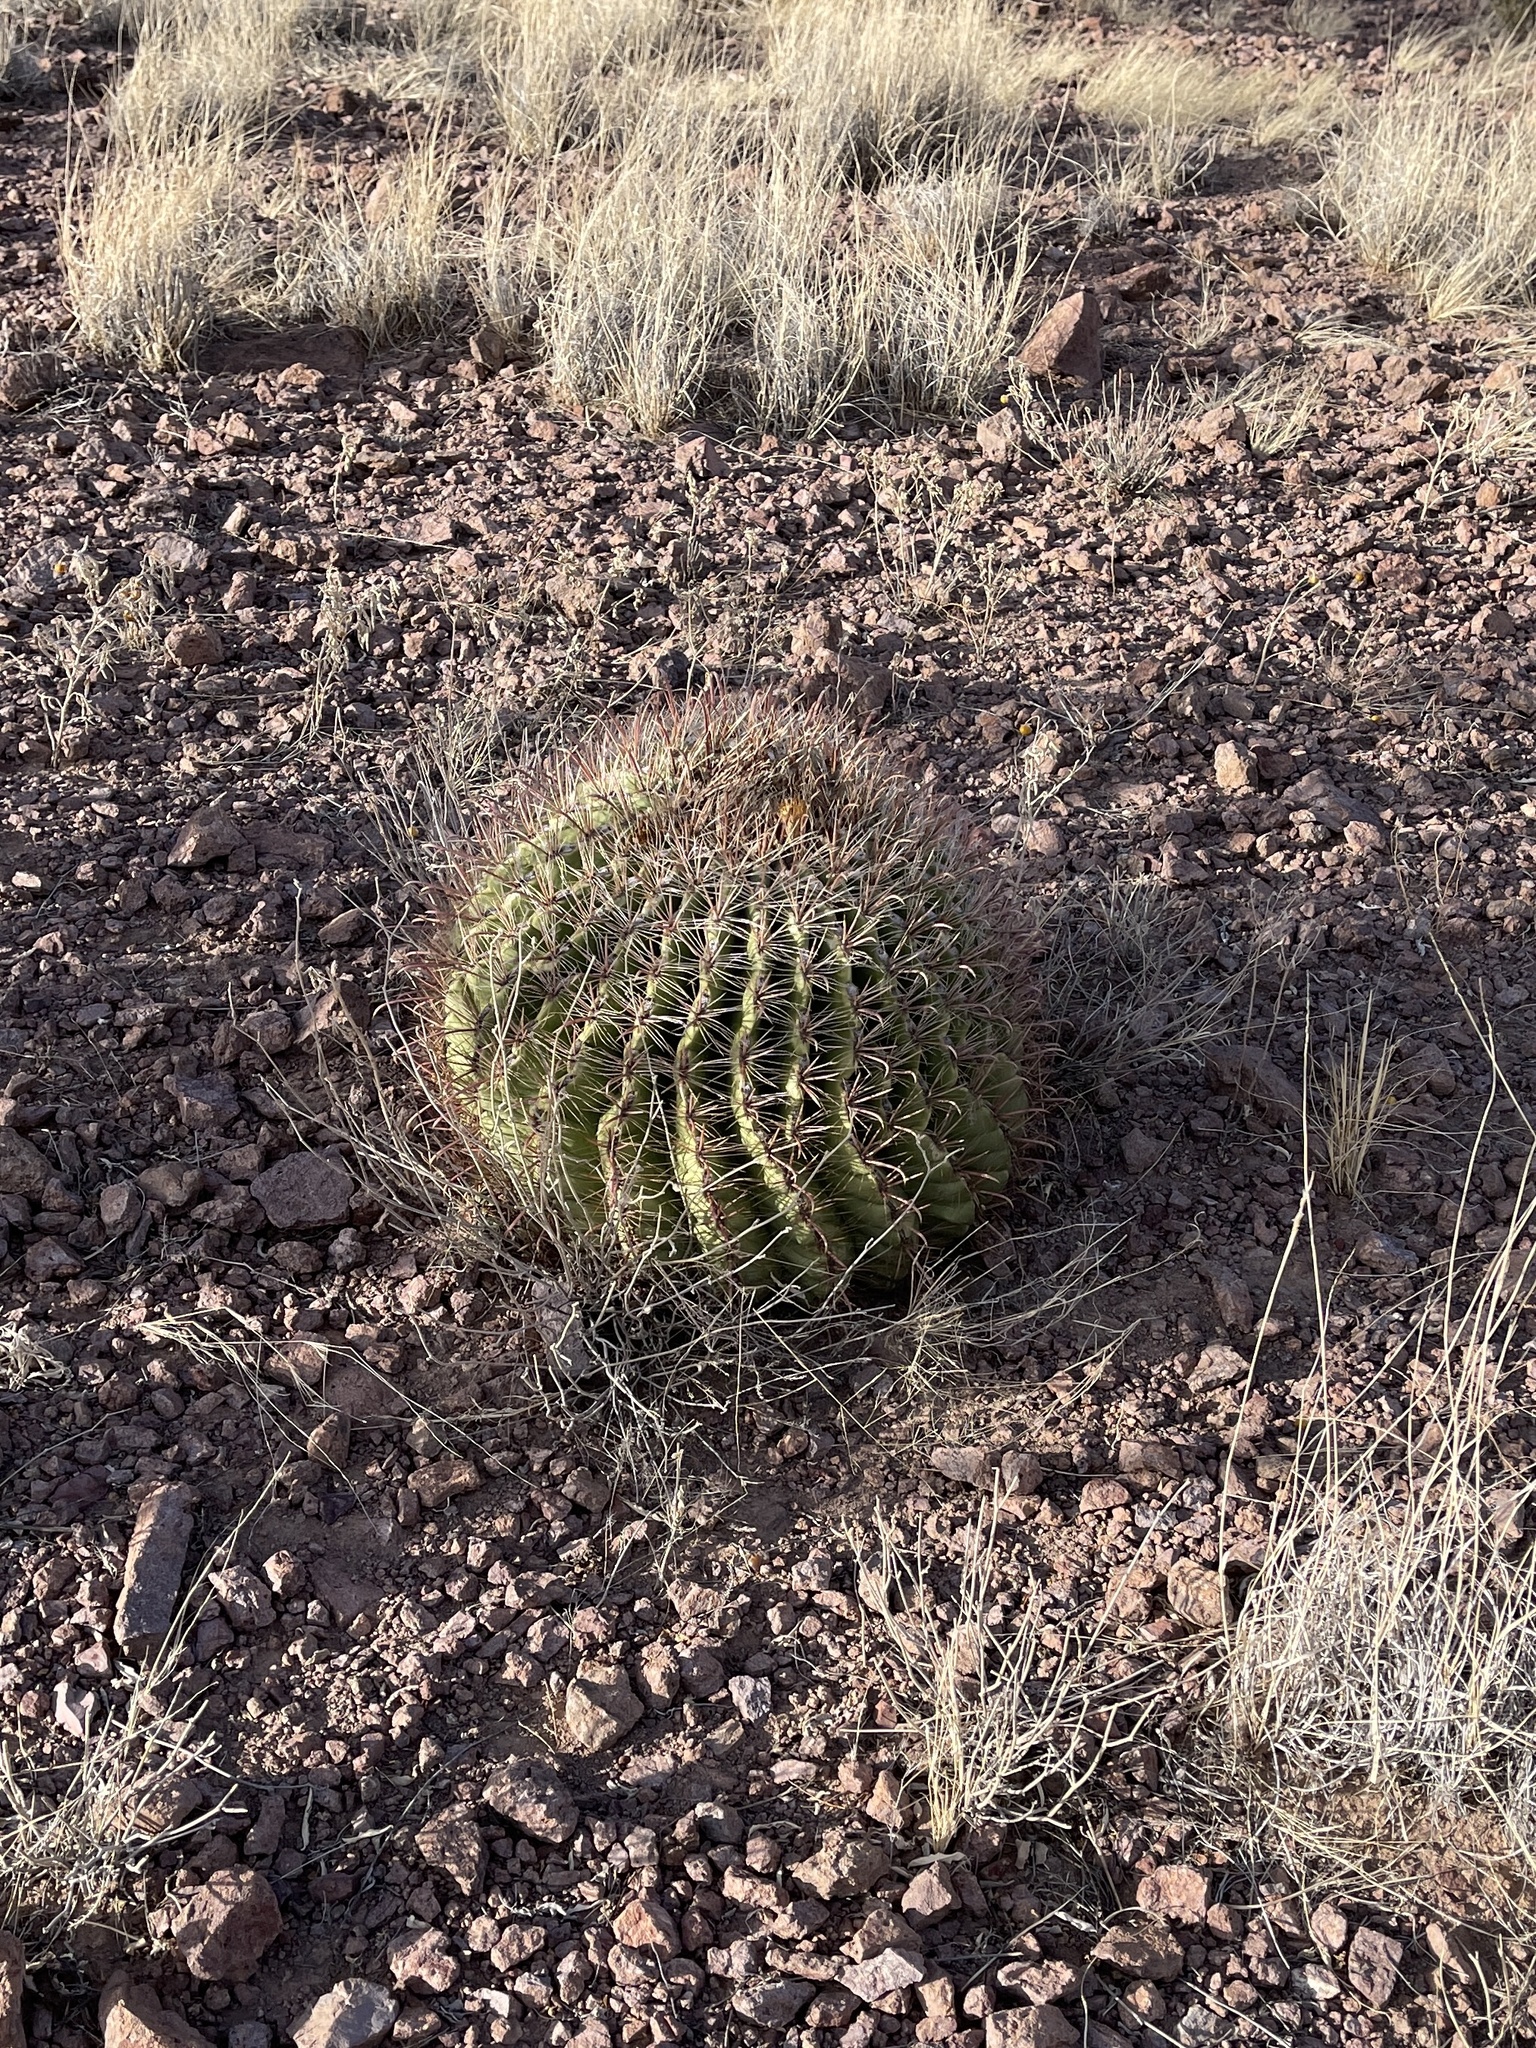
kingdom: Plantae
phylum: Tracheophyta
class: Magnoliopsida
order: Caryophyllales
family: Cactaceae
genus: Ferocactus
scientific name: Ferocactus wislizeni
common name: Candy barrel cactus
